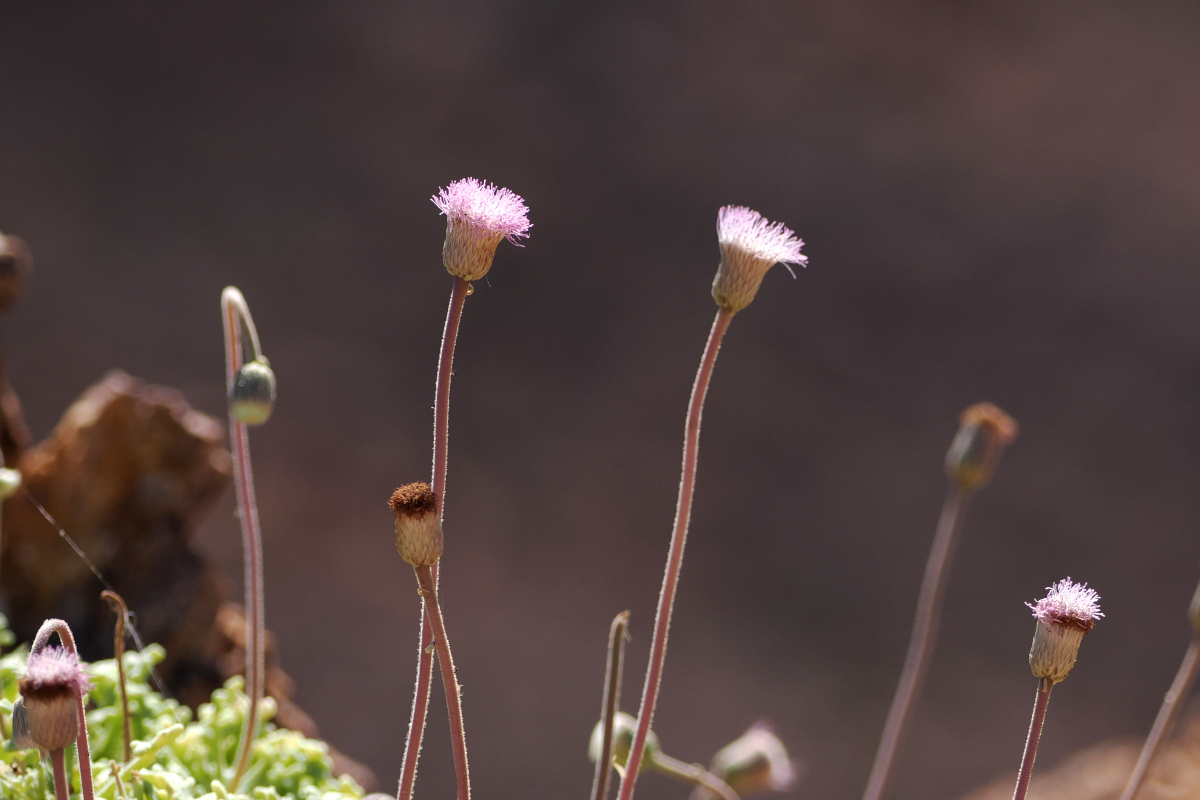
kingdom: Plantae
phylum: Tracheophyta
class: Magnoliopsida
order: Asterales
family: Asteraceae
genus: Hofmeisteria
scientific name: Hofmeisteria fasciculata
